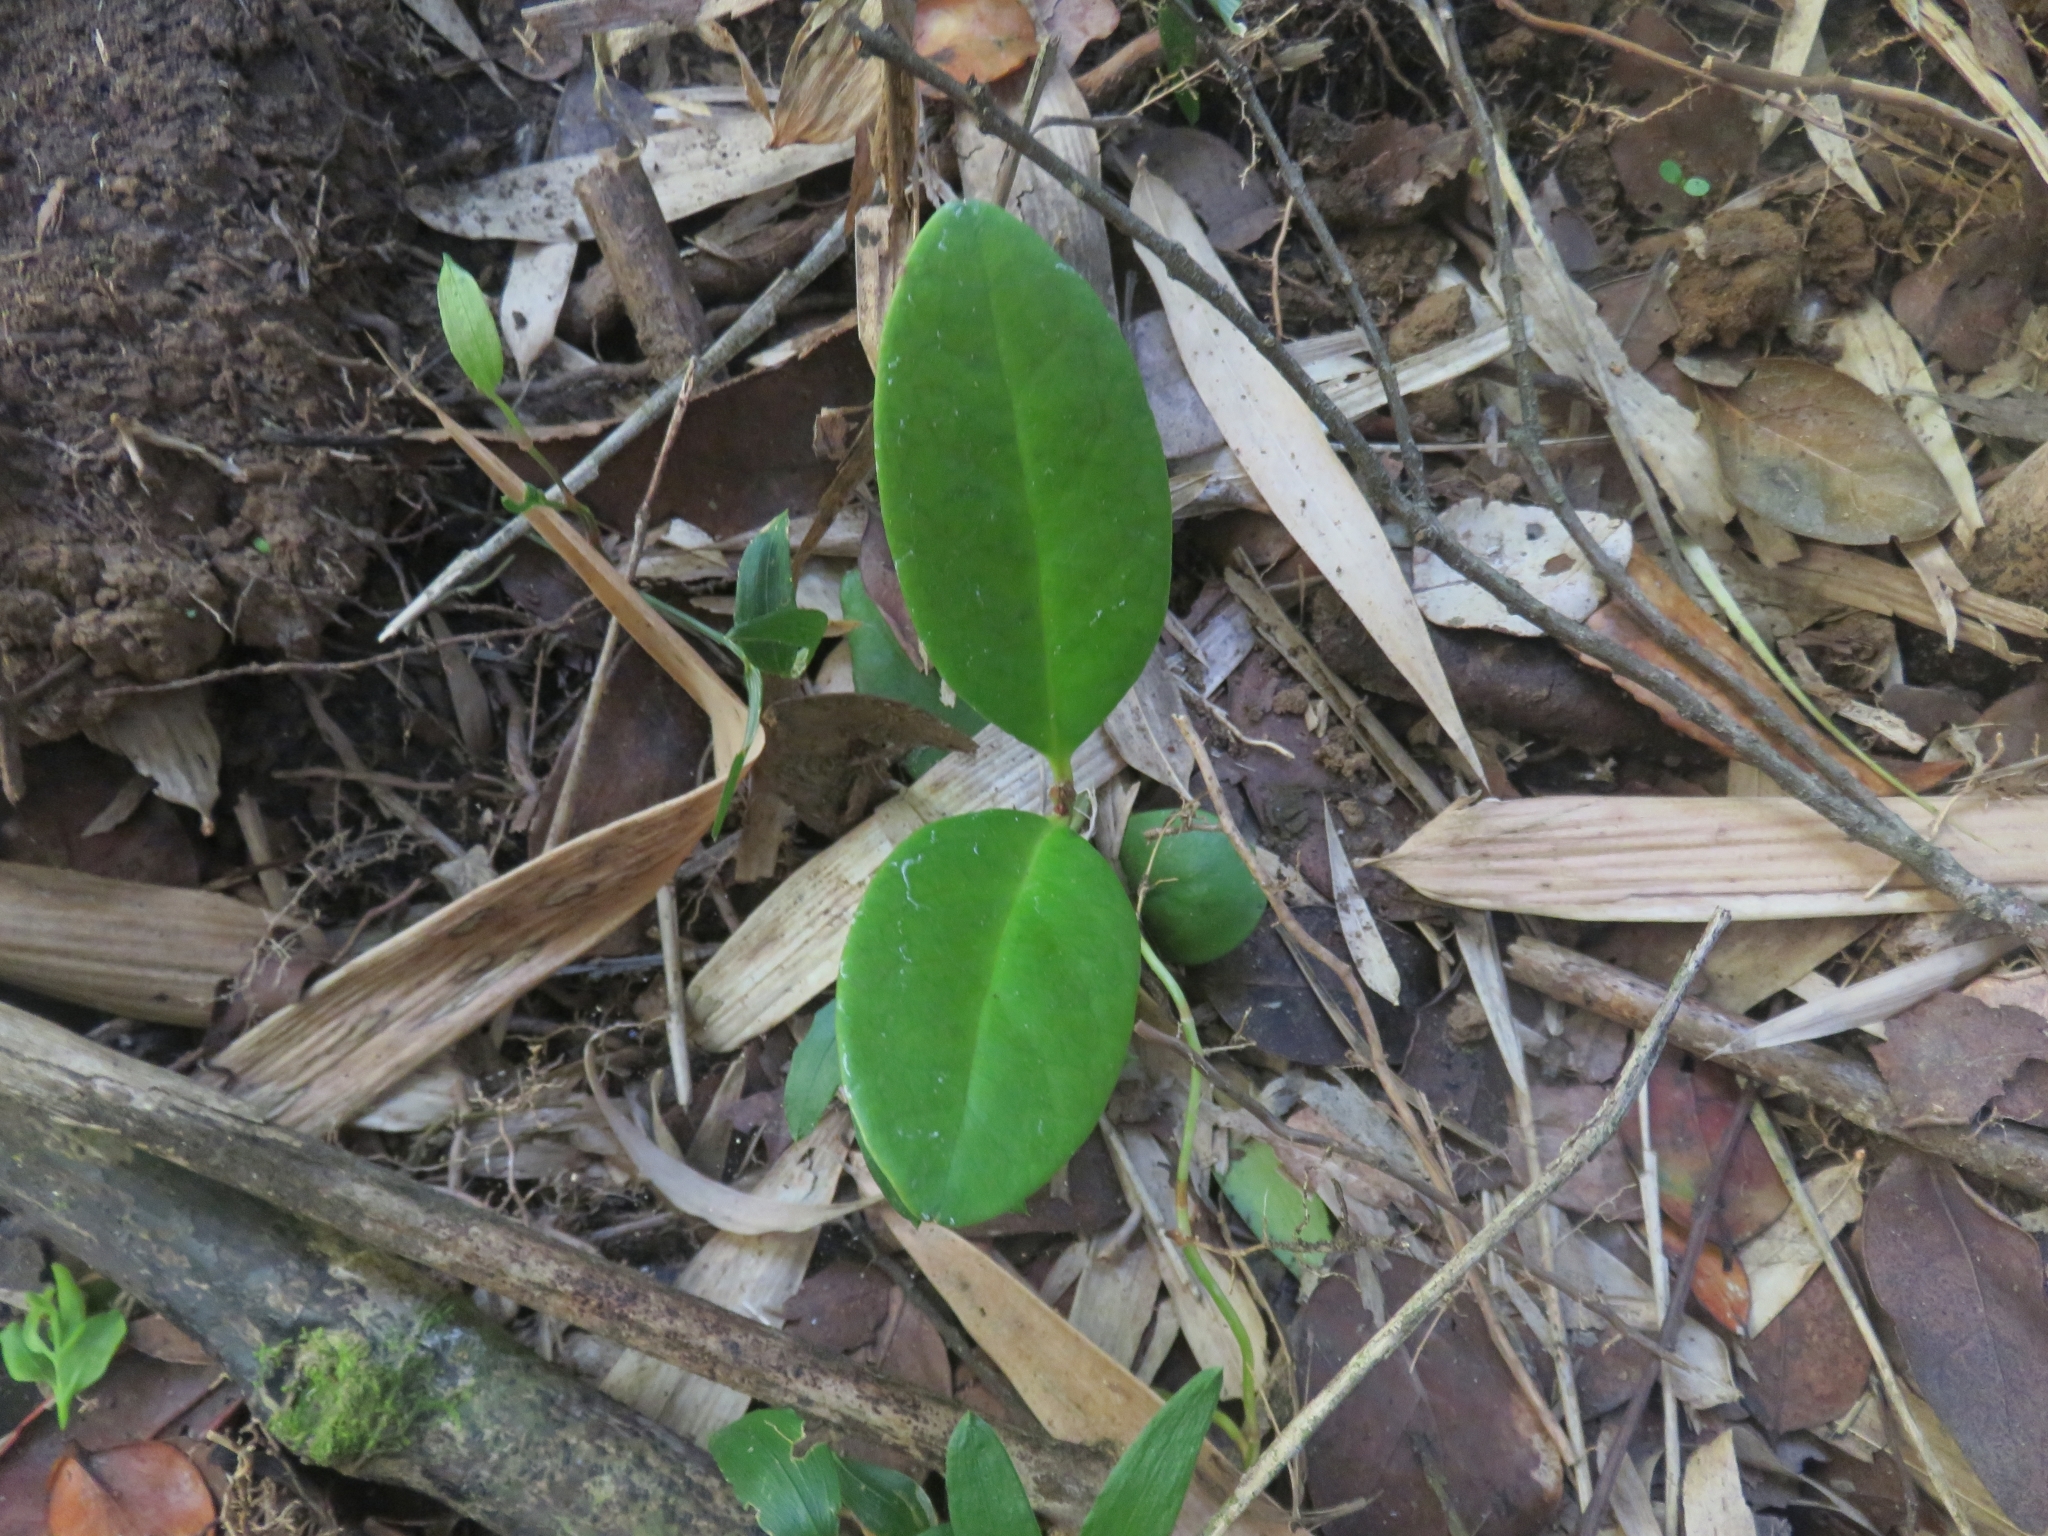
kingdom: Plantae
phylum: Tracheophyta
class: Magnoliopsida
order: Laurales
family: Gomortegaceae
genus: Gomortega
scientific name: Gomortega keule
